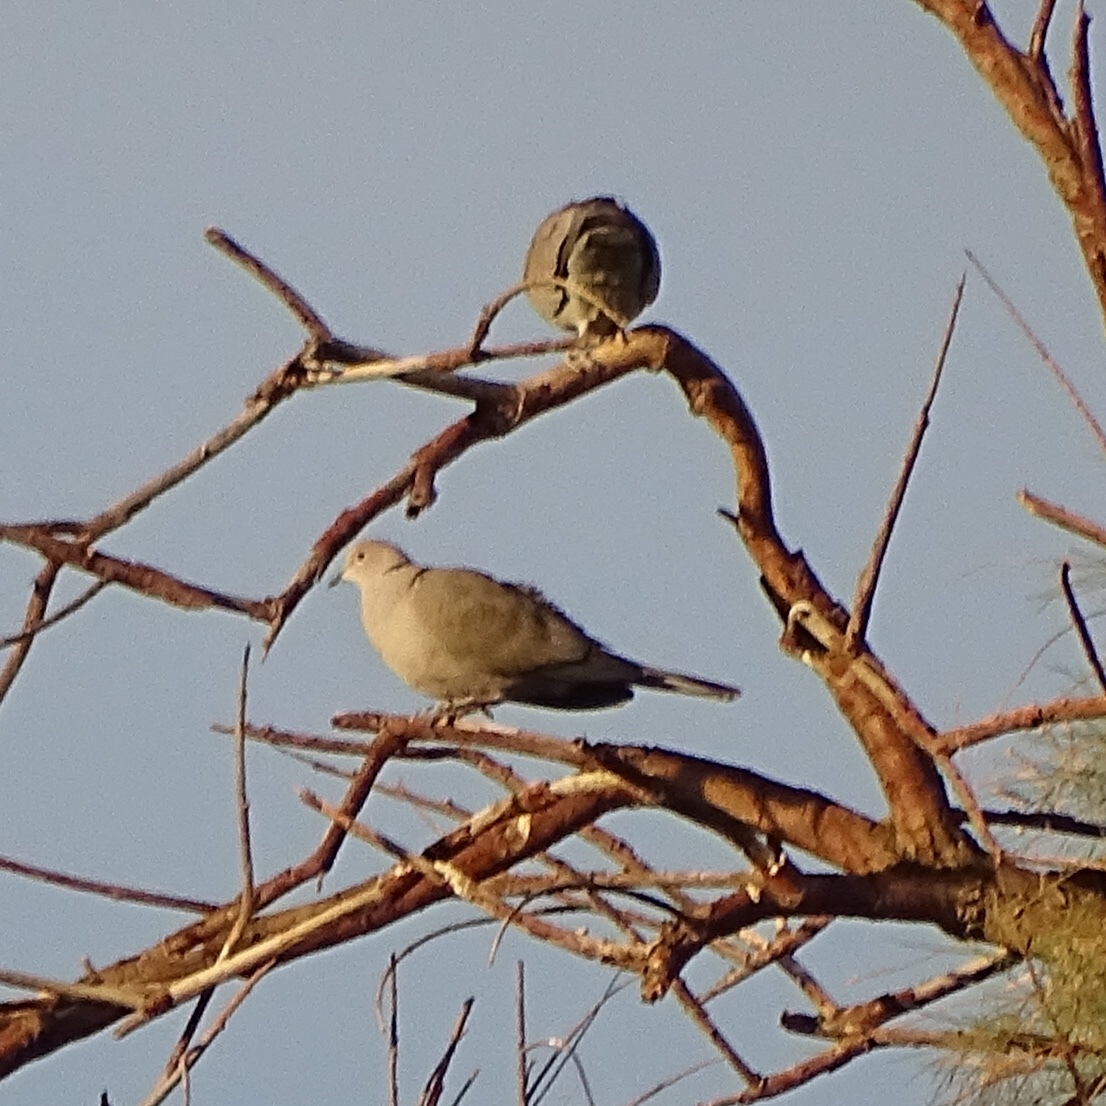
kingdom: Animalia
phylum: Chordata
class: Aves
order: Columbiformes
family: Columbidae
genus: Streptopelia
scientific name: Streptopelia decaocto
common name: Eurasian collared dove
